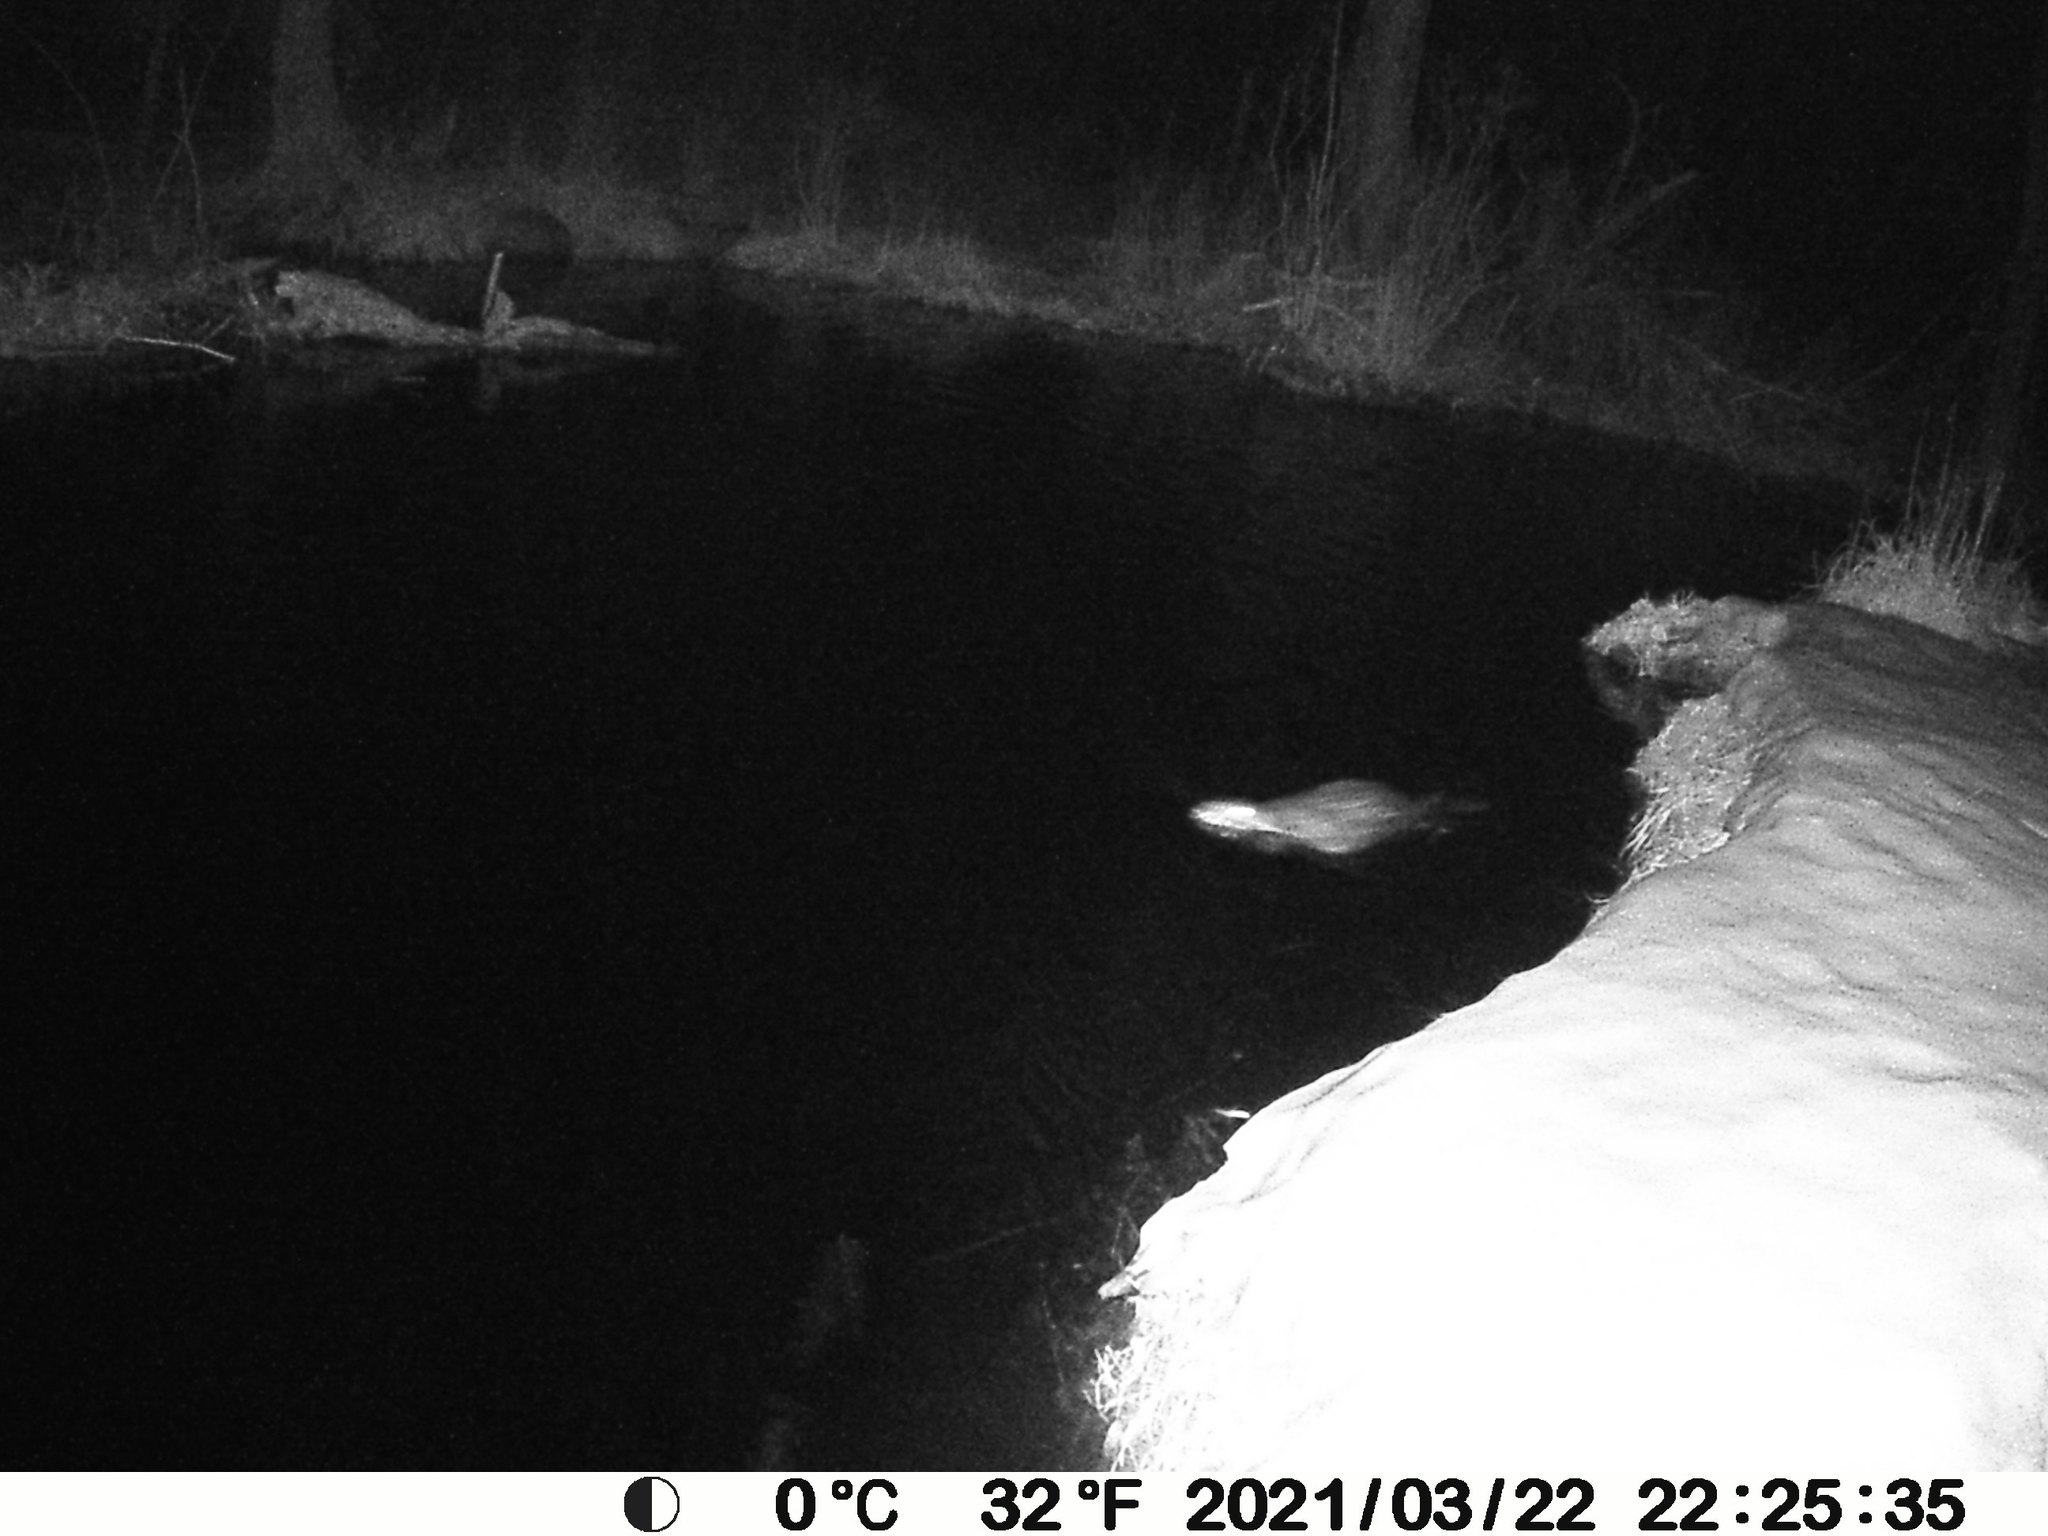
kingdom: Animalia
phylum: Chordata
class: Mammalia
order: Rodentia
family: Castoridae
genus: Castor
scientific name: Castor canadensis
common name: American beaver
